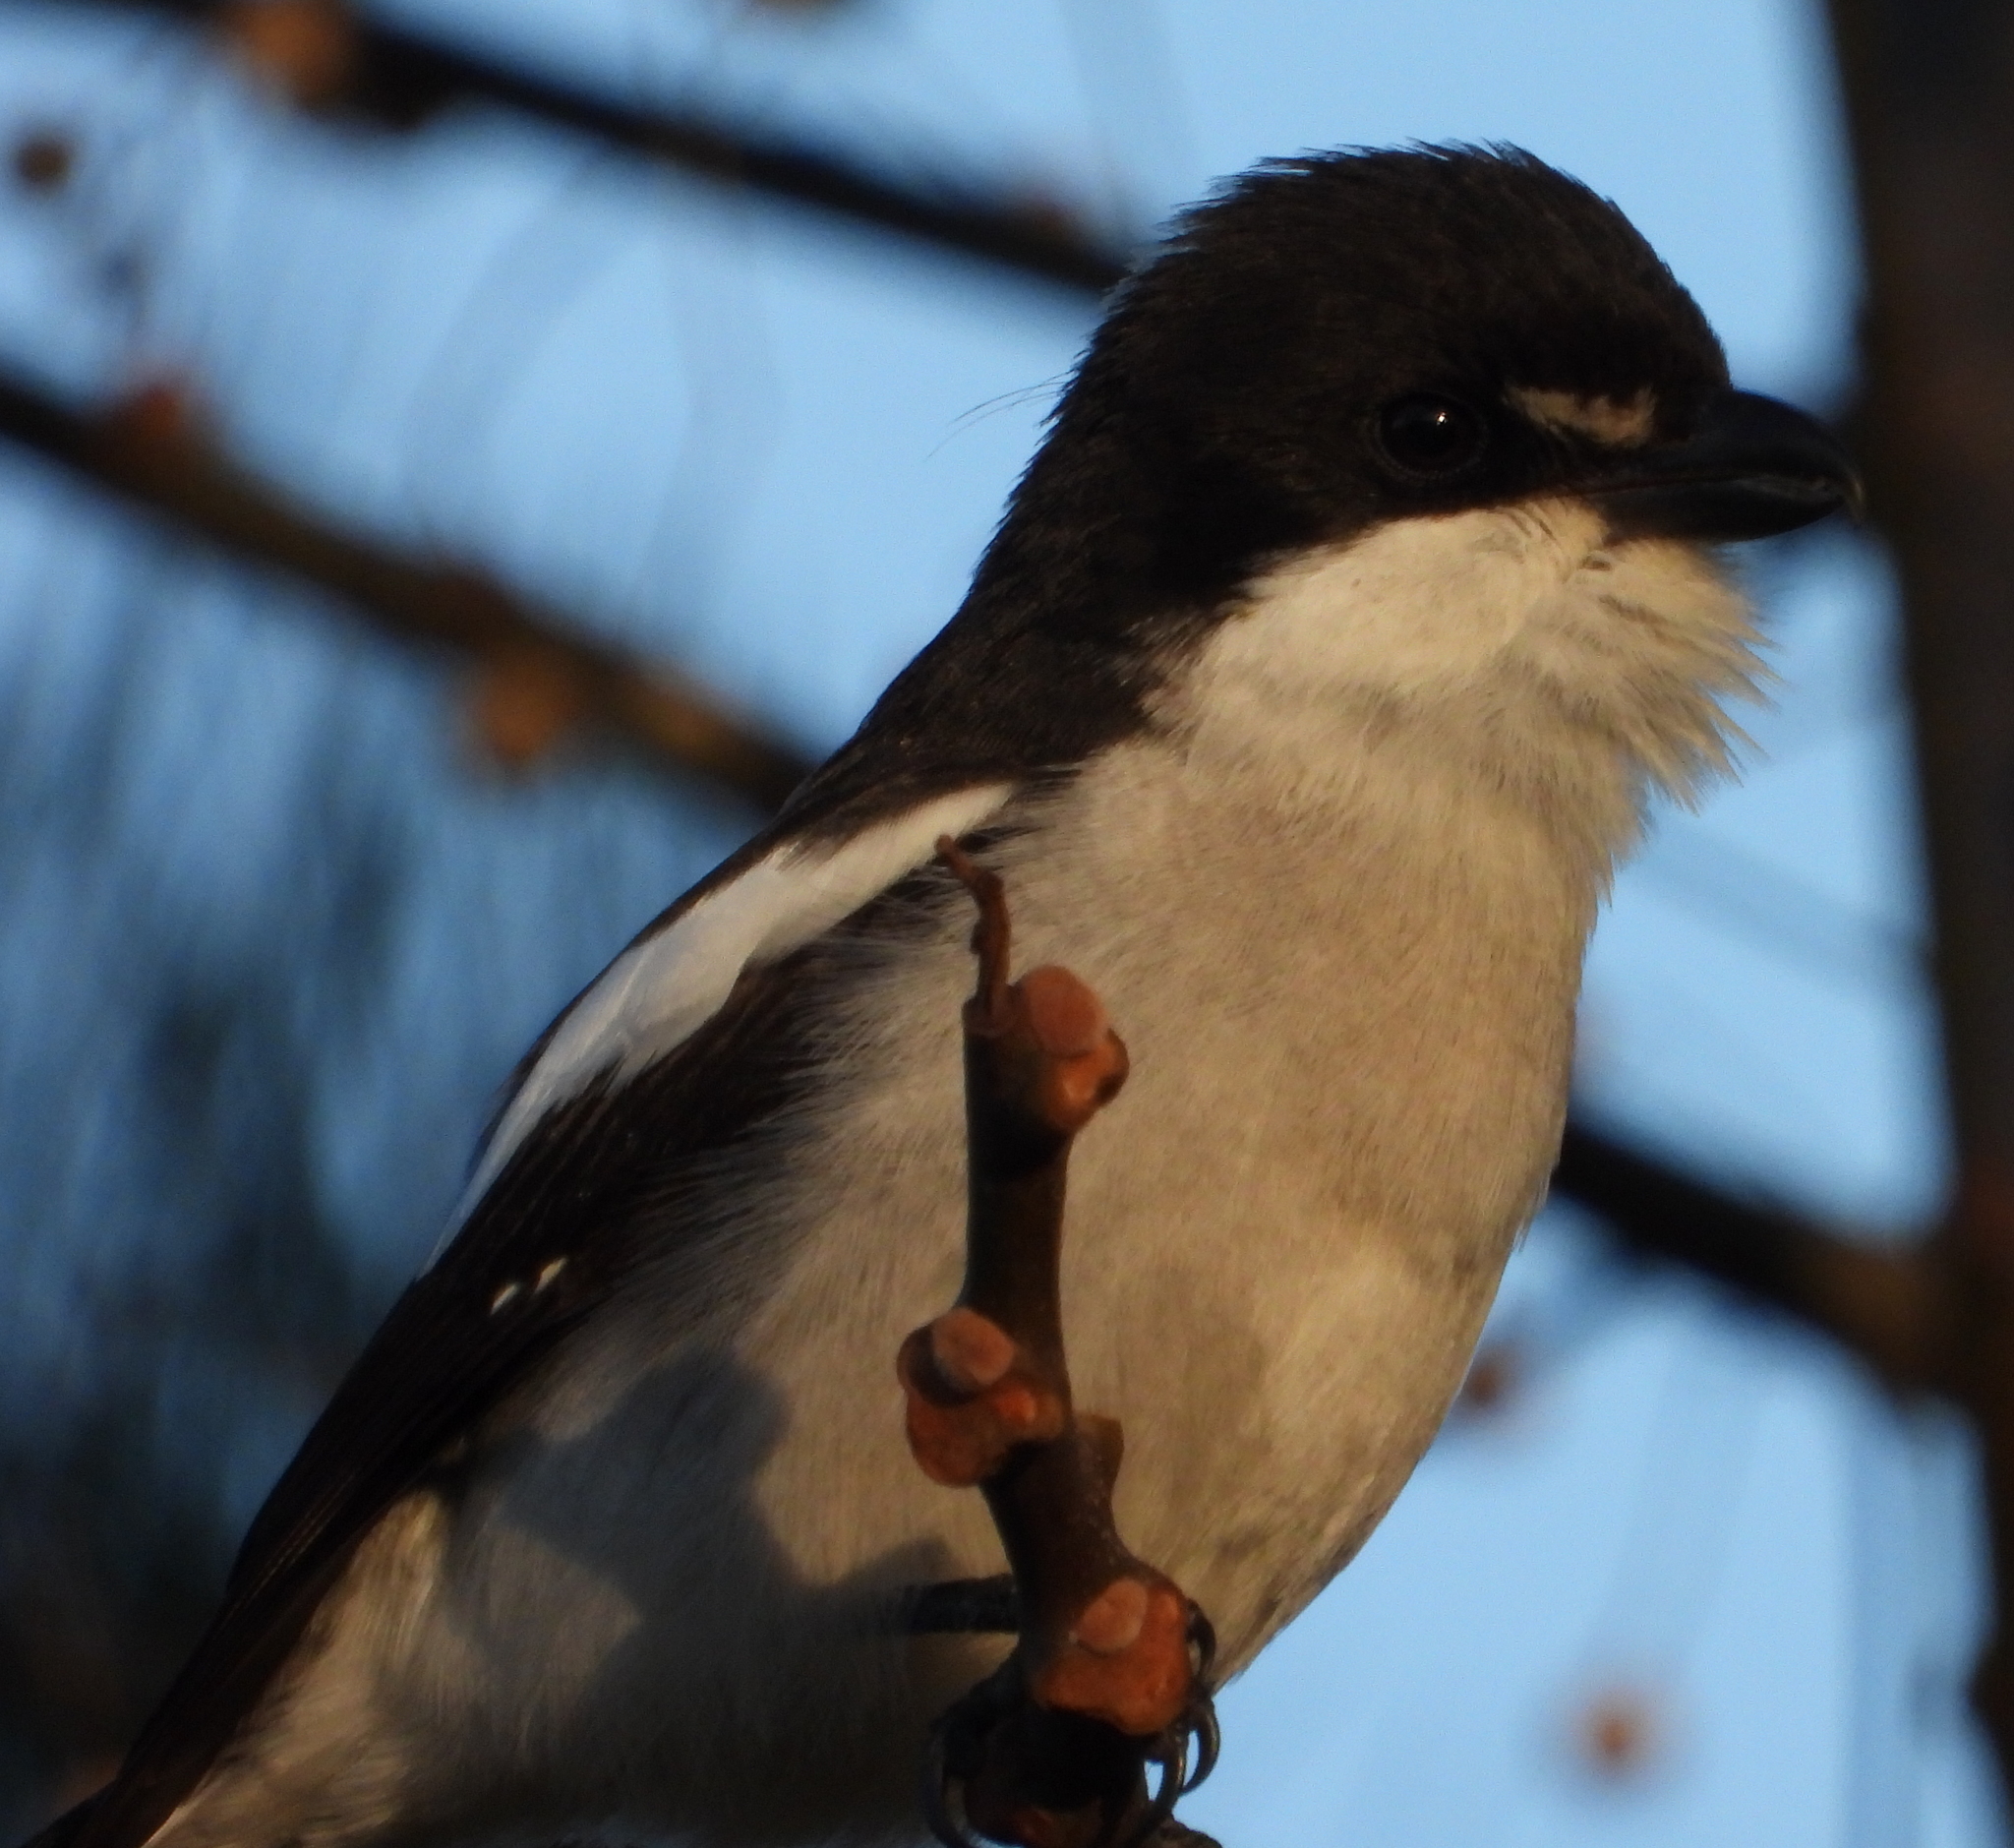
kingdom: Animalia
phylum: Chordata
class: Aves
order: Passeriformes
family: Laniidae
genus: Lanius
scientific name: Lanius collaris
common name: Southern fiscal
